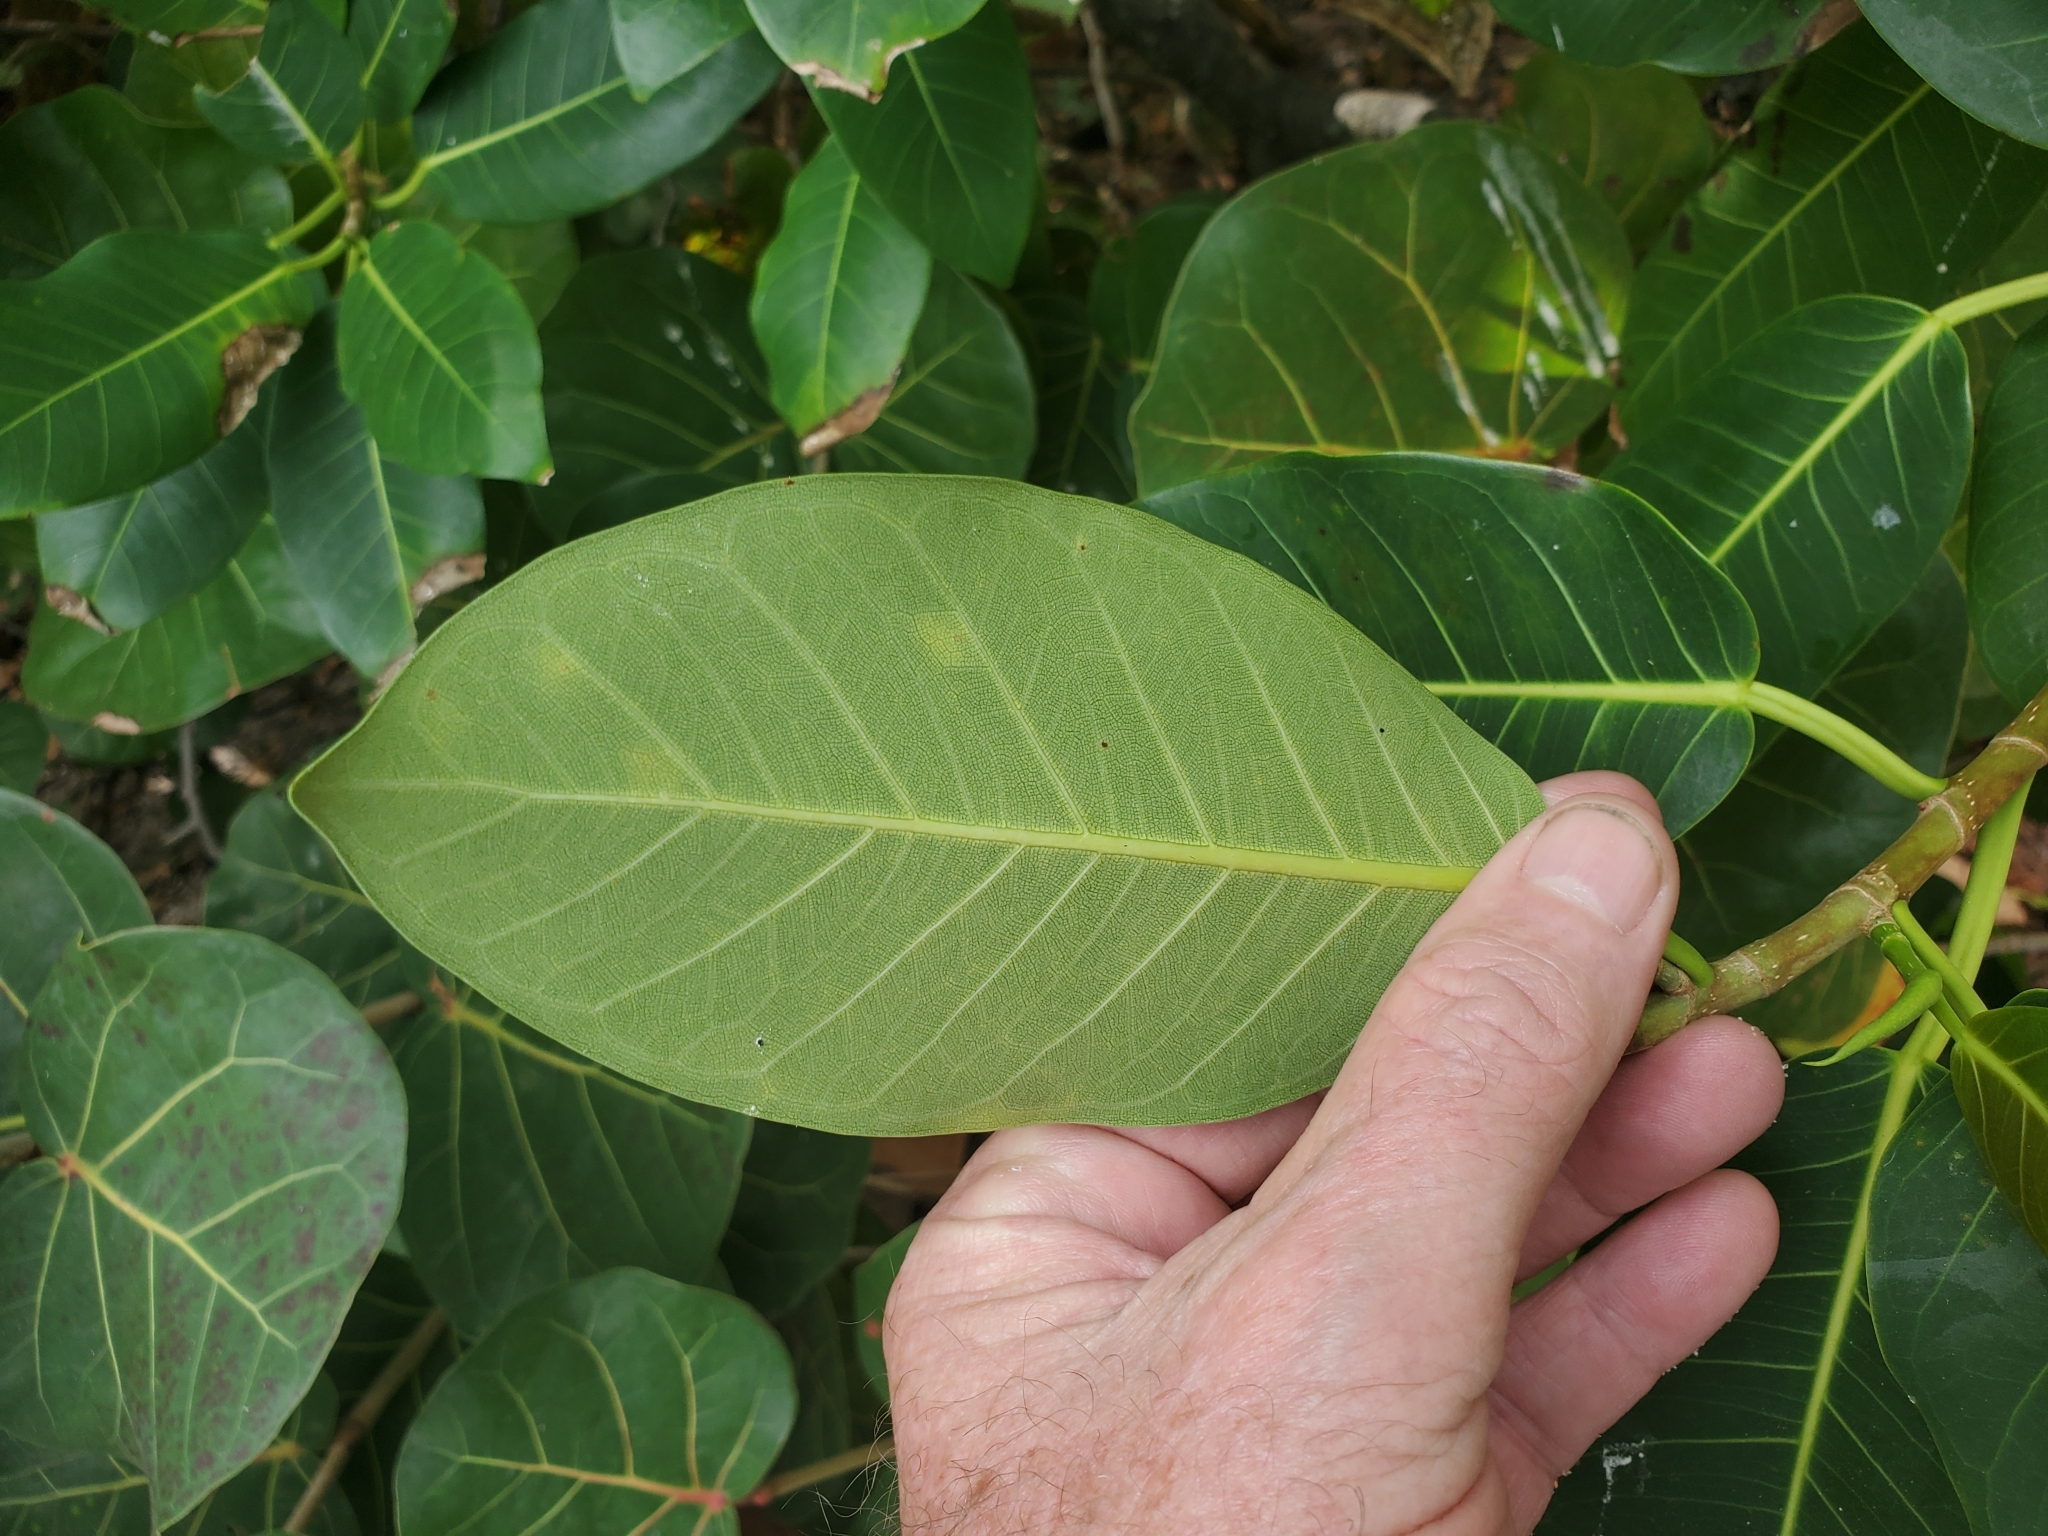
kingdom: Plantae
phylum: Tracheophyta
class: Magnoliopsida
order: Rosales
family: Moraceae
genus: Ficus
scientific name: Ficus aurea
